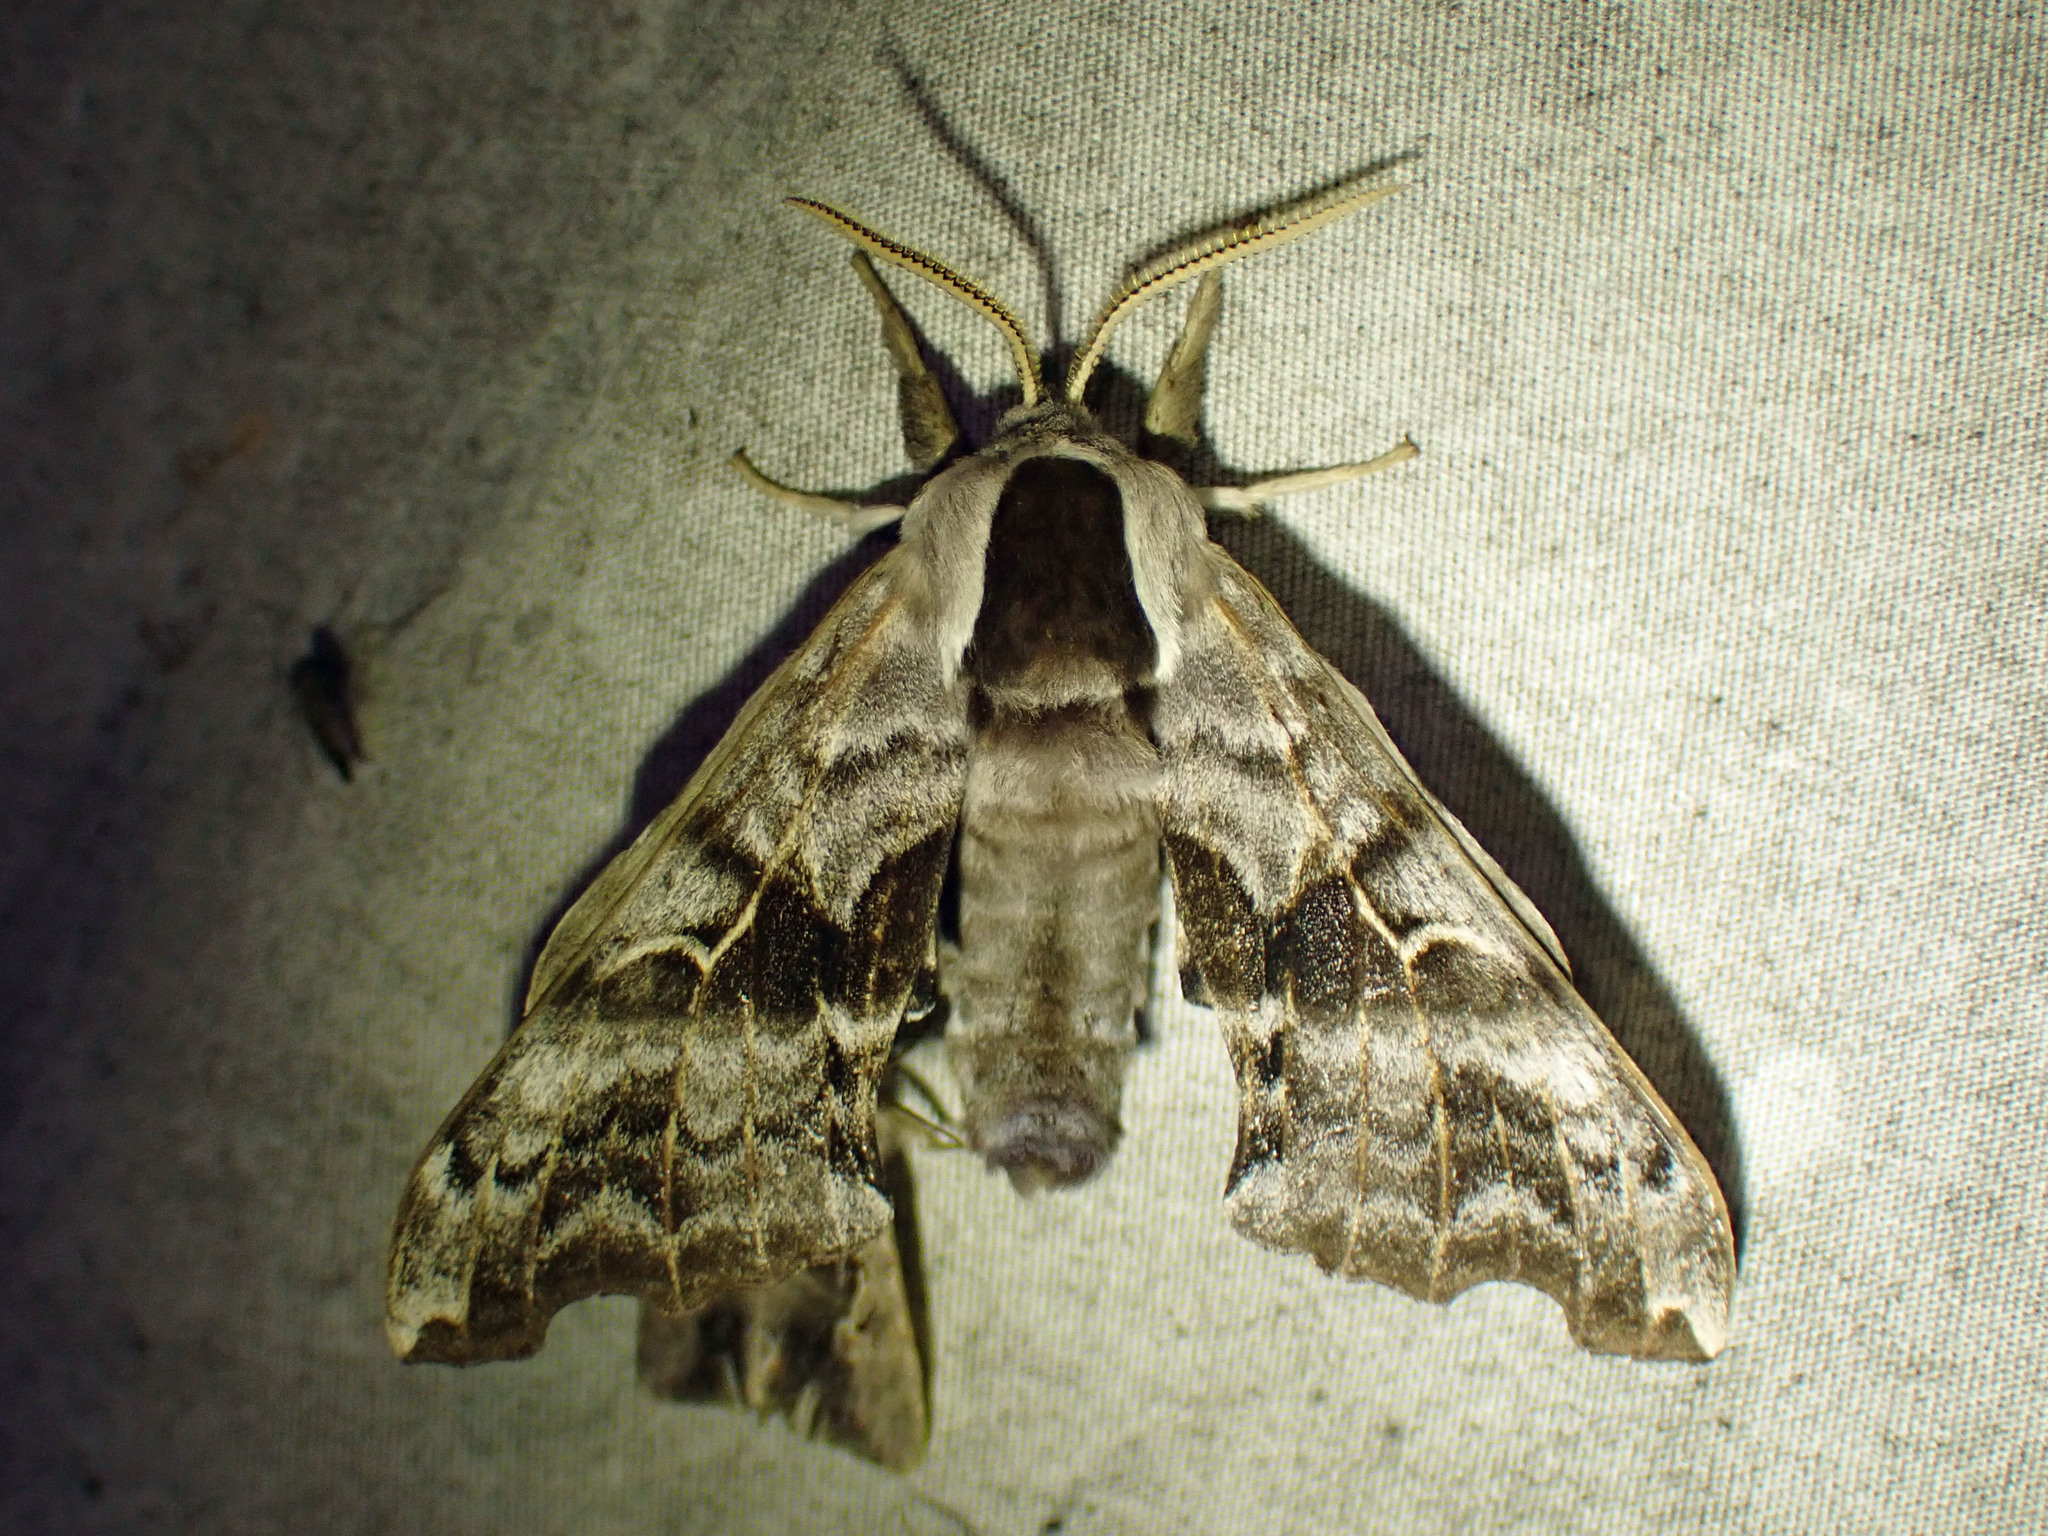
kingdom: Animalia
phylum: Arthropoda
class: Insecta
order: Lepidoptera
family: Sphingidae
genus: Smerinthus
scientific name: Smerinthus cerisyi
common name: Cerisy's sphinx moth
